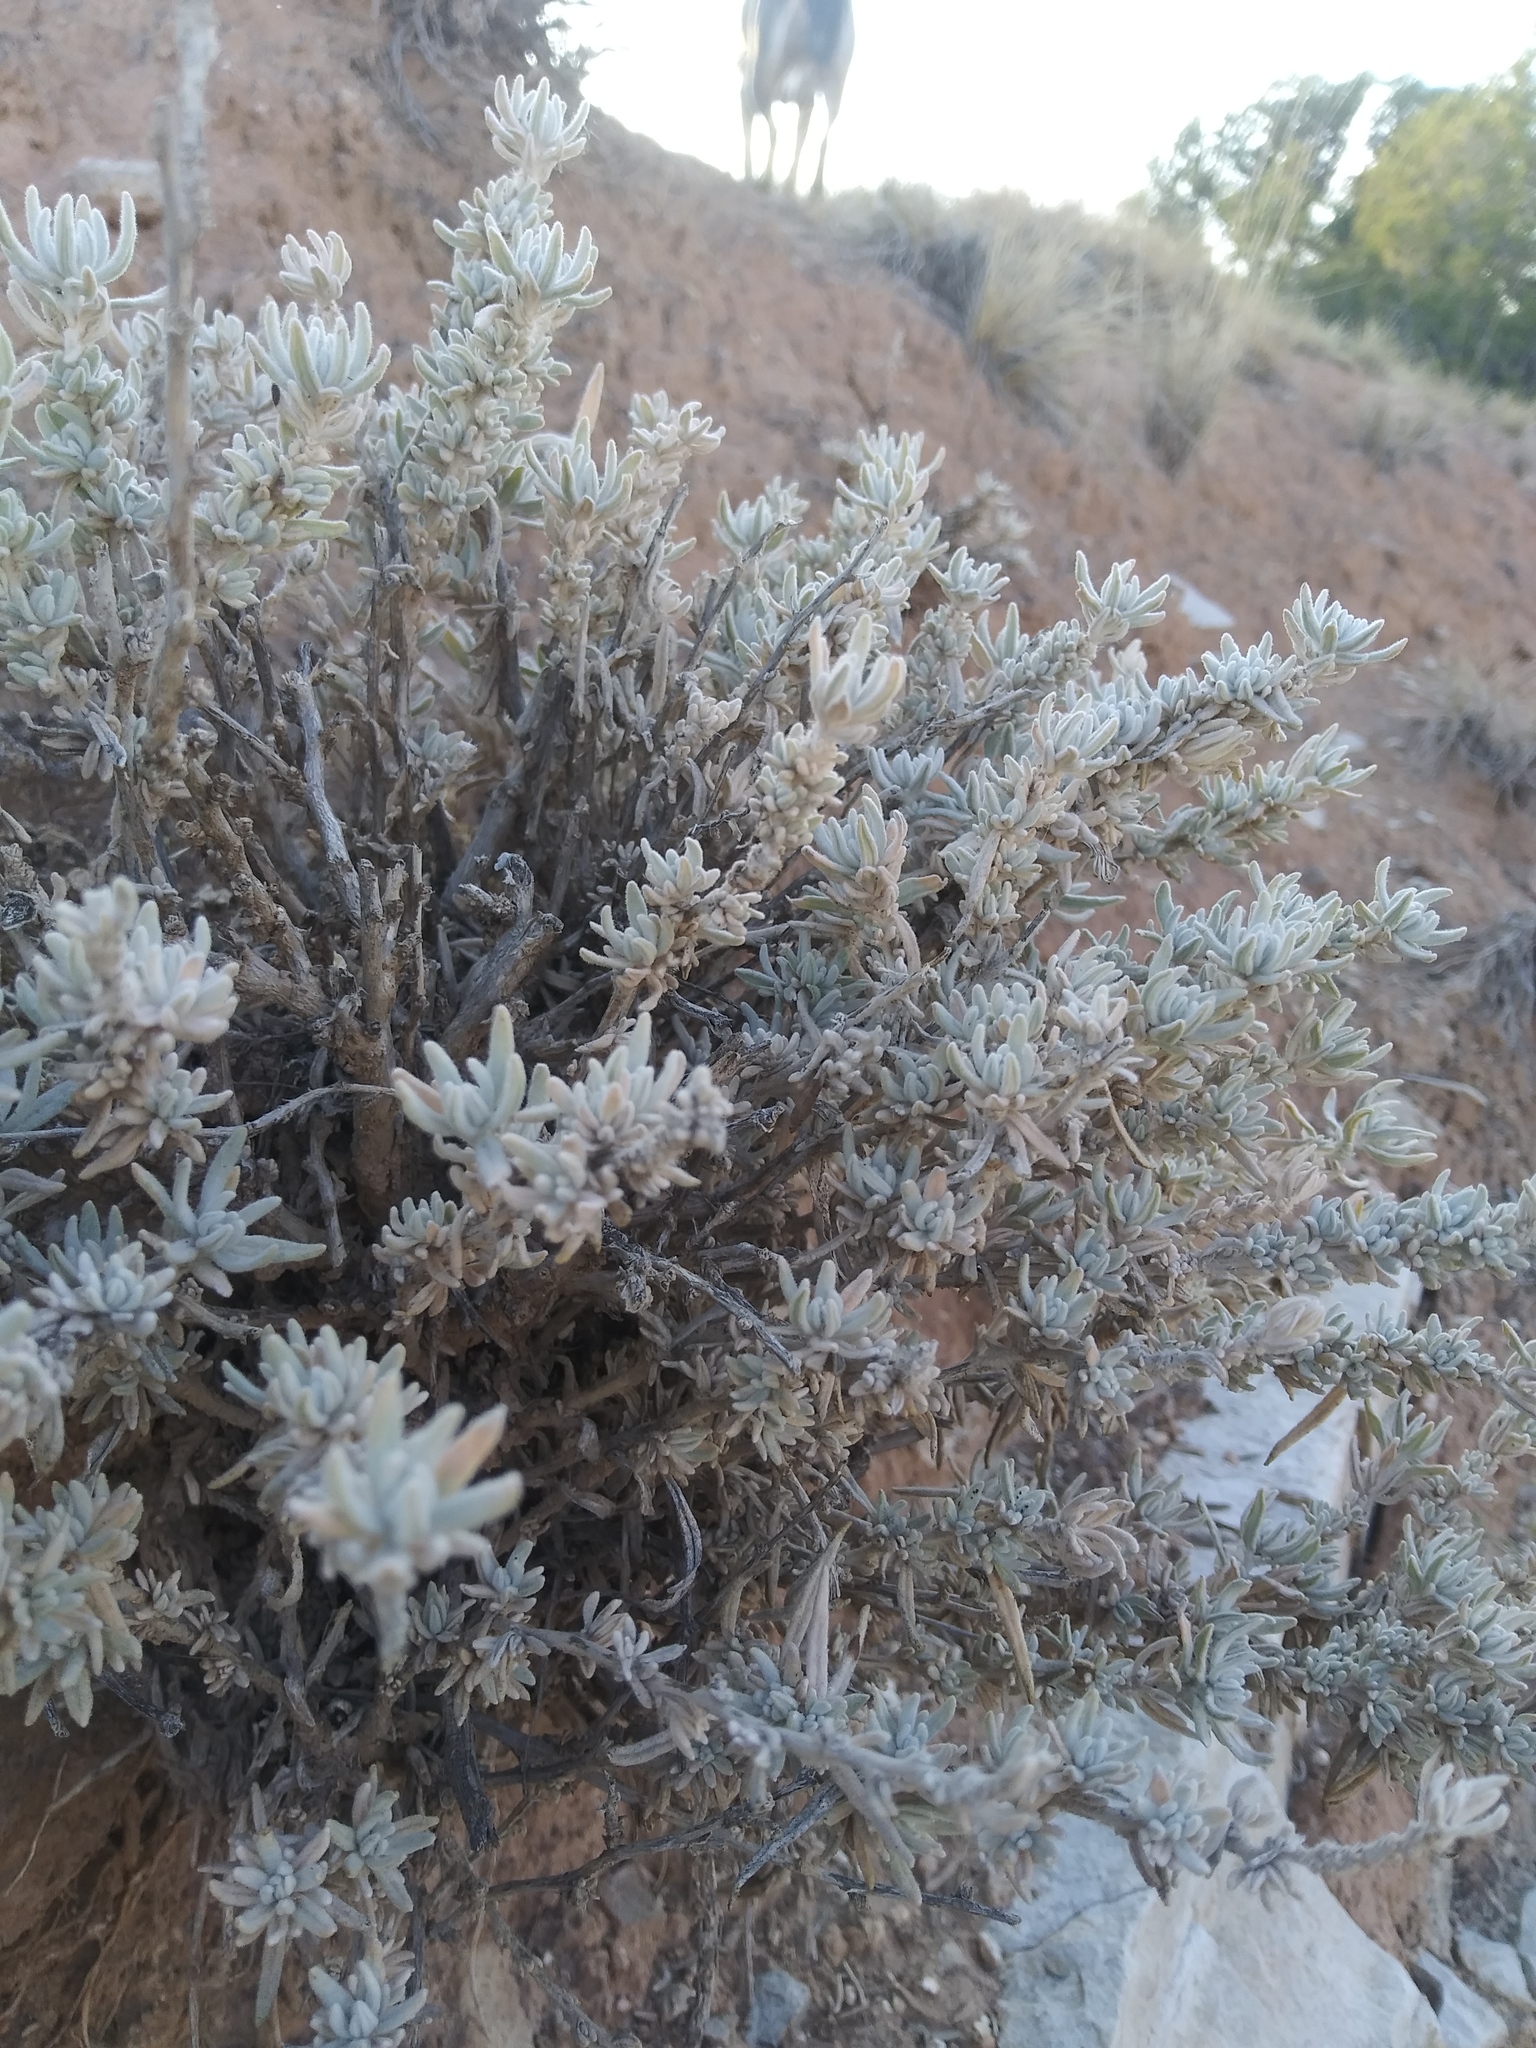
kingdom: Plantae
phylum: Tracheophyta
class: Magnoliopsida
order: Caryophyllales
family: Amaranthaceae
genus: Krascheninnikovia
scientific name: Krascheninnikovia lanata
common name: Winterfat
